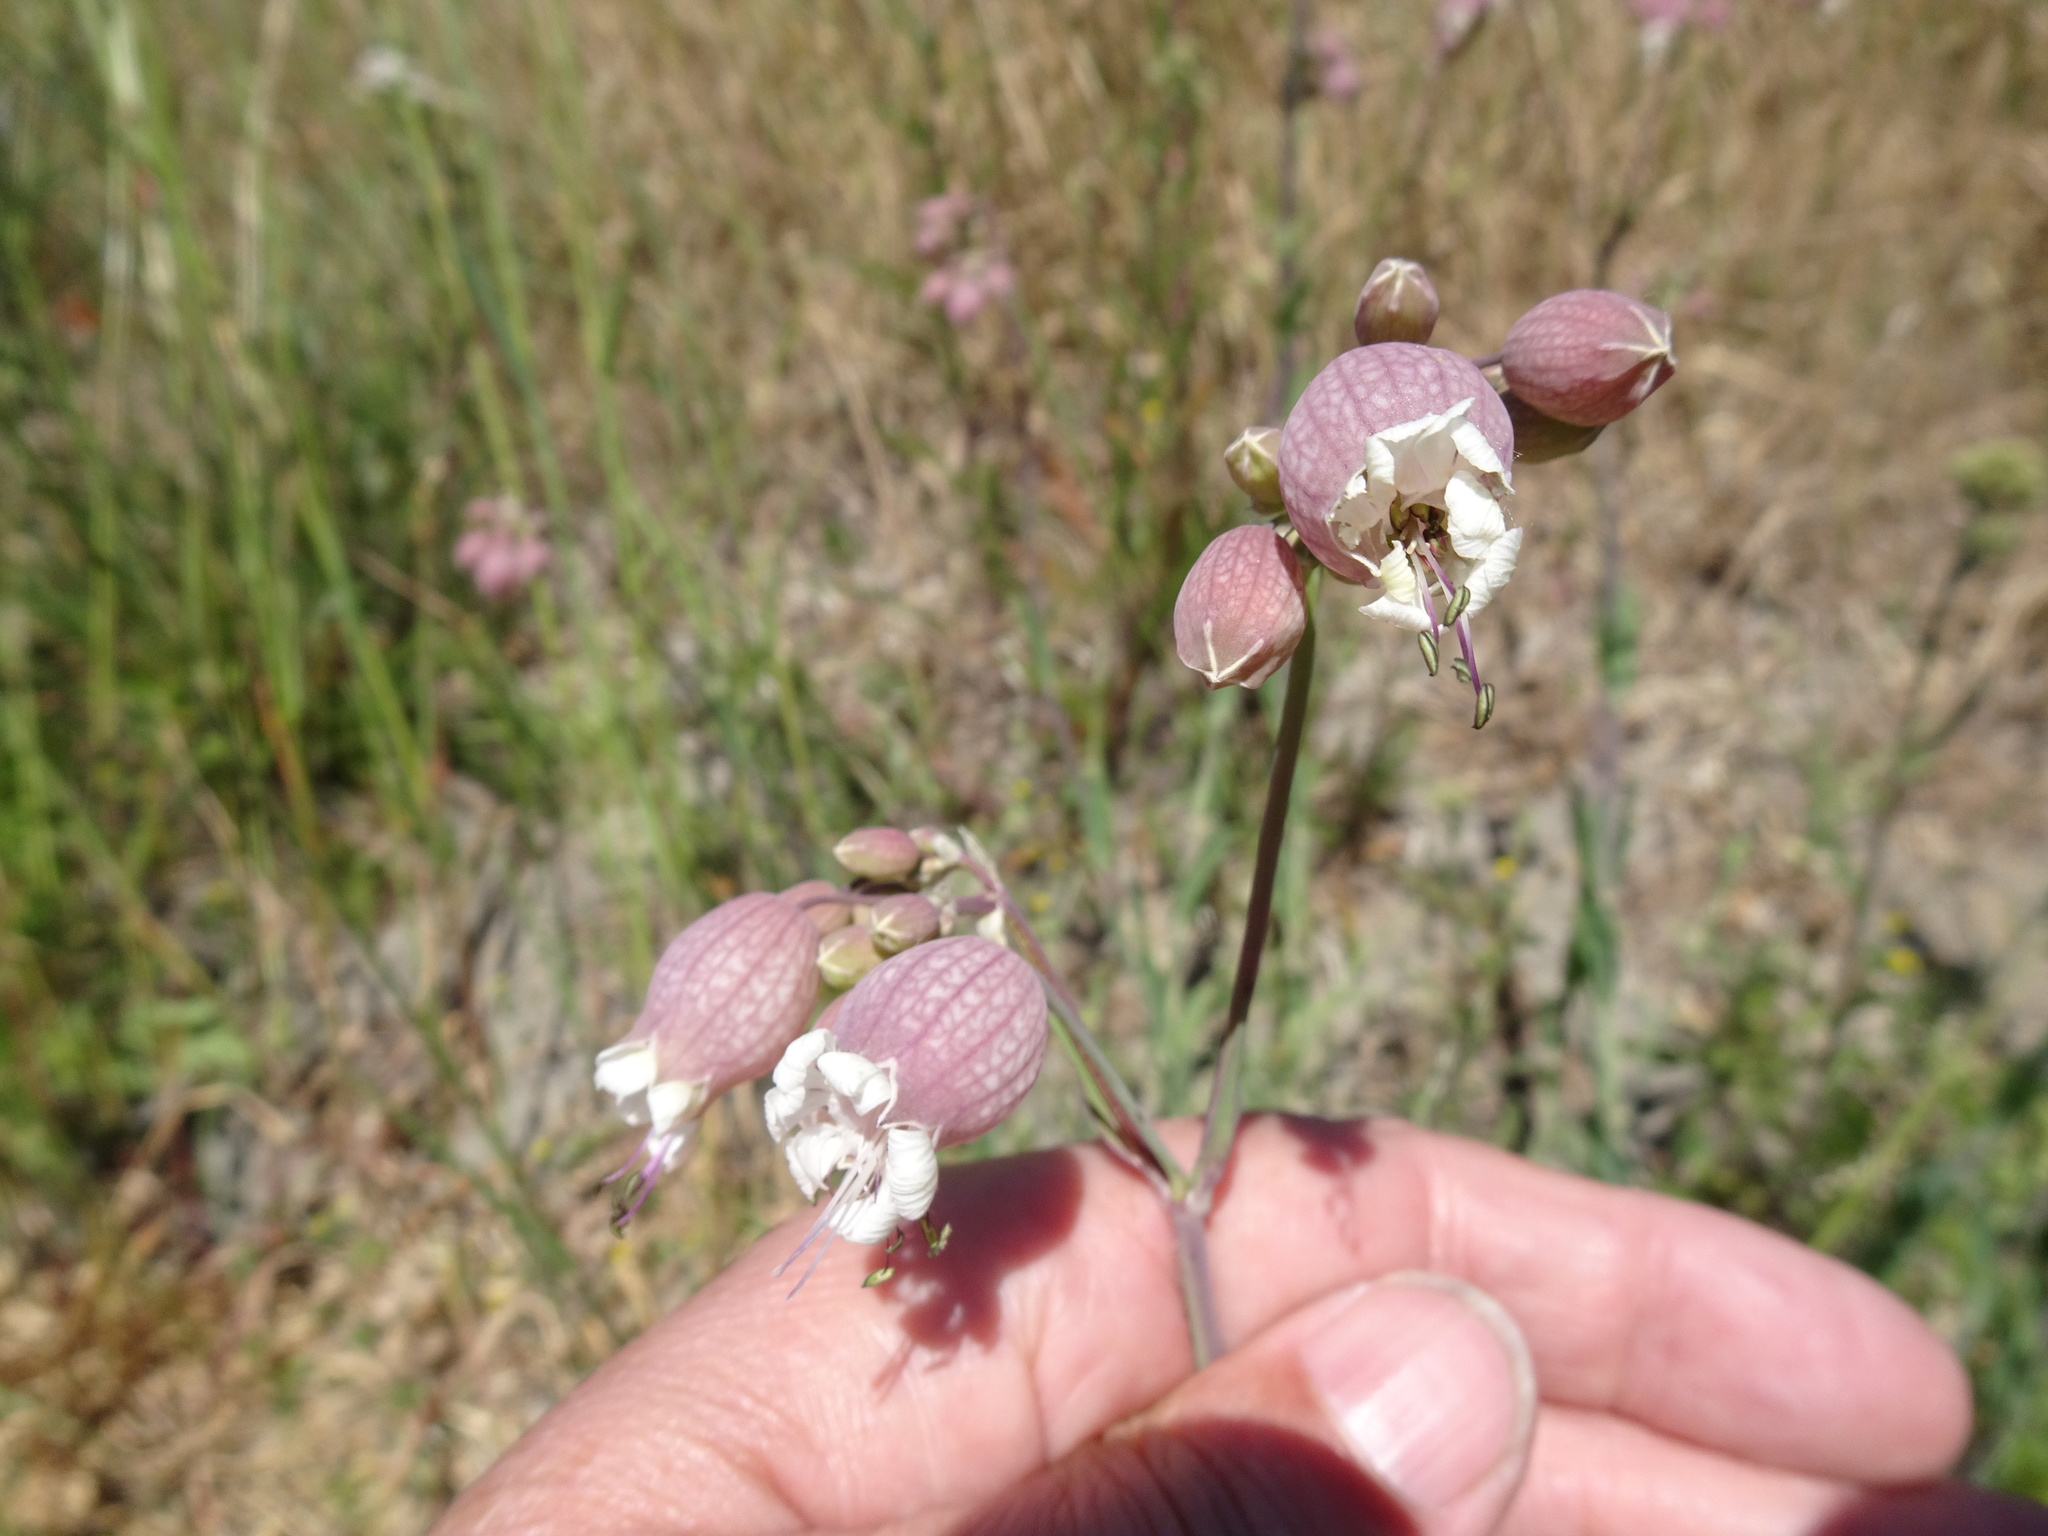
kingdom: Plantae
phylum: Tracheophyta
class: Magnoliopsida
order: Caryophyllales
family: Caryophyllaceae
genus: Silene
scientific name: Silene vulgaris
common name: Bladder campion
